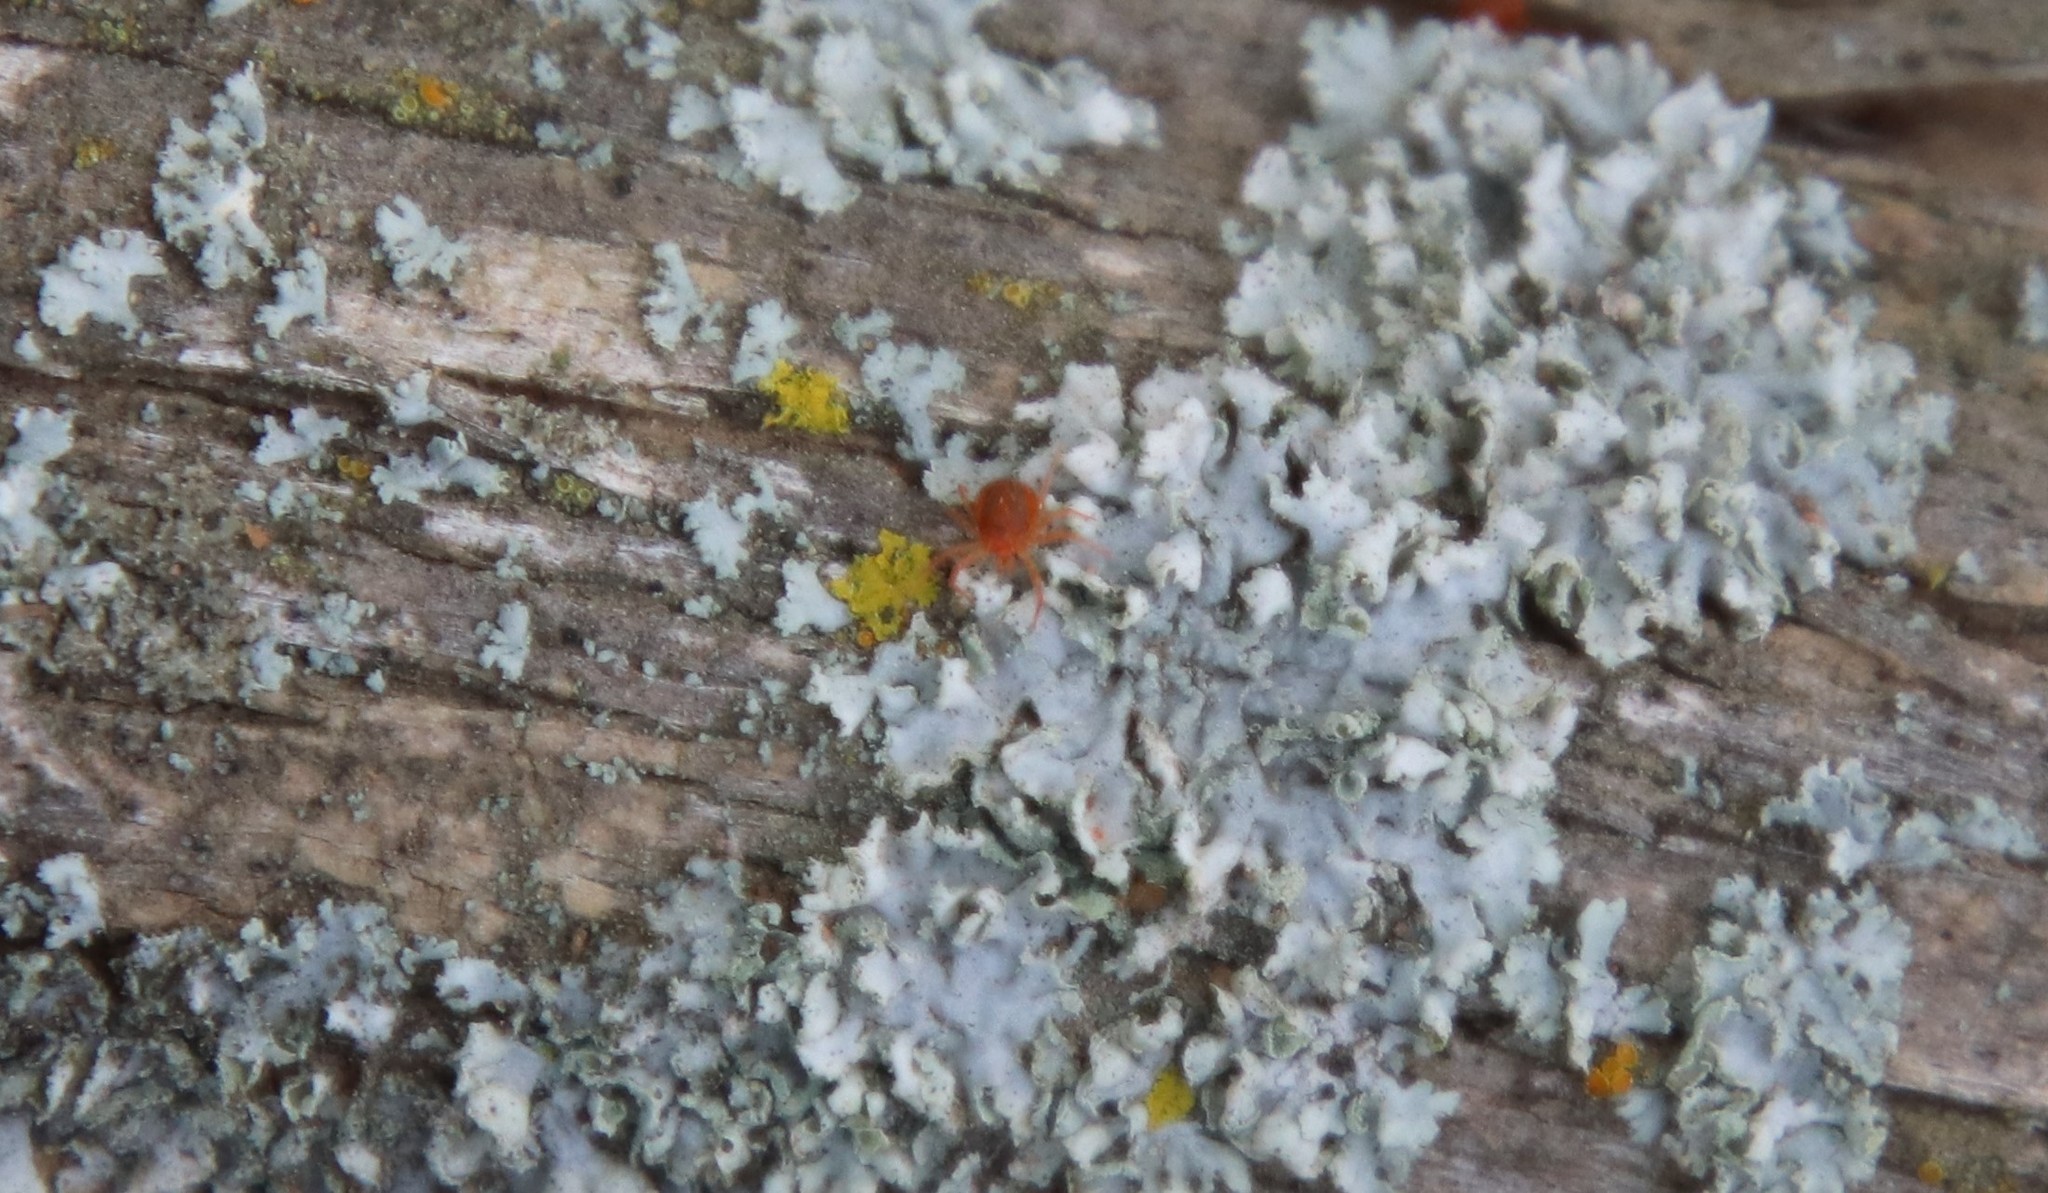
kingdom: Fungi
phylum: Ascomycota
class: Lecanoromycetes
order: Caliciales
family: Physciaceae
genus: Physcia
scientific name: Physcia adscendens
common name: Hooded rosette lichen
